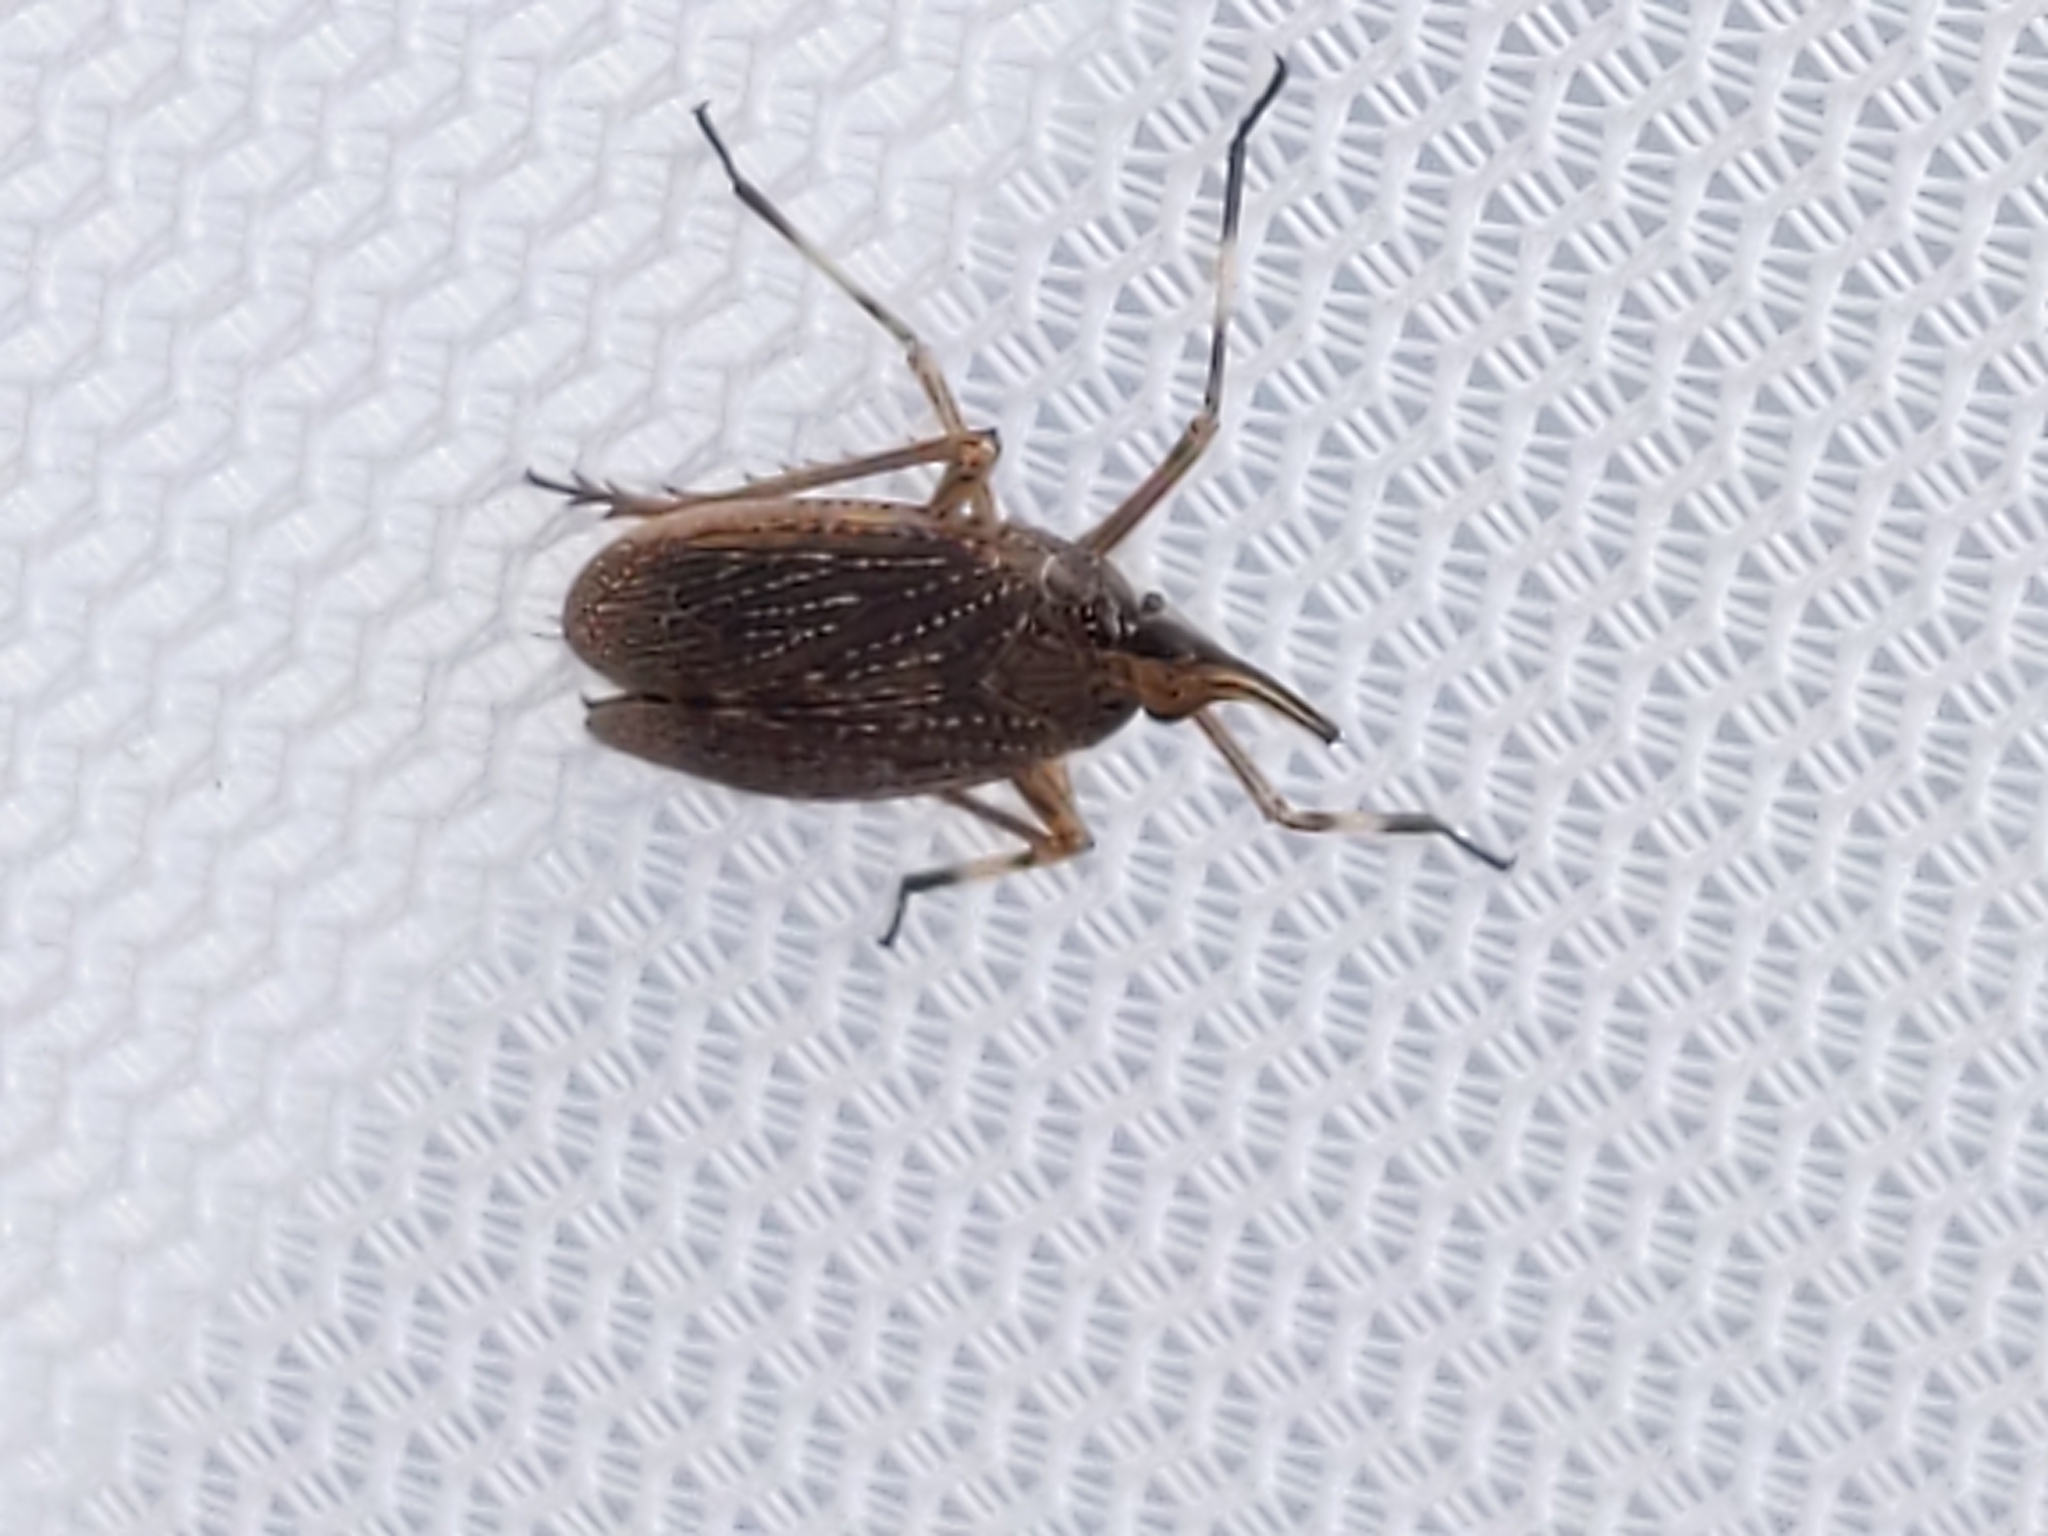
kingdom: Animalia
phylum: Arthropoda
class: Insecta
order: Hemiptera
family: Dictyopharidae
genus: Scolops
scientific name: Scolops sulcipes
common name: Partridge planthopper
